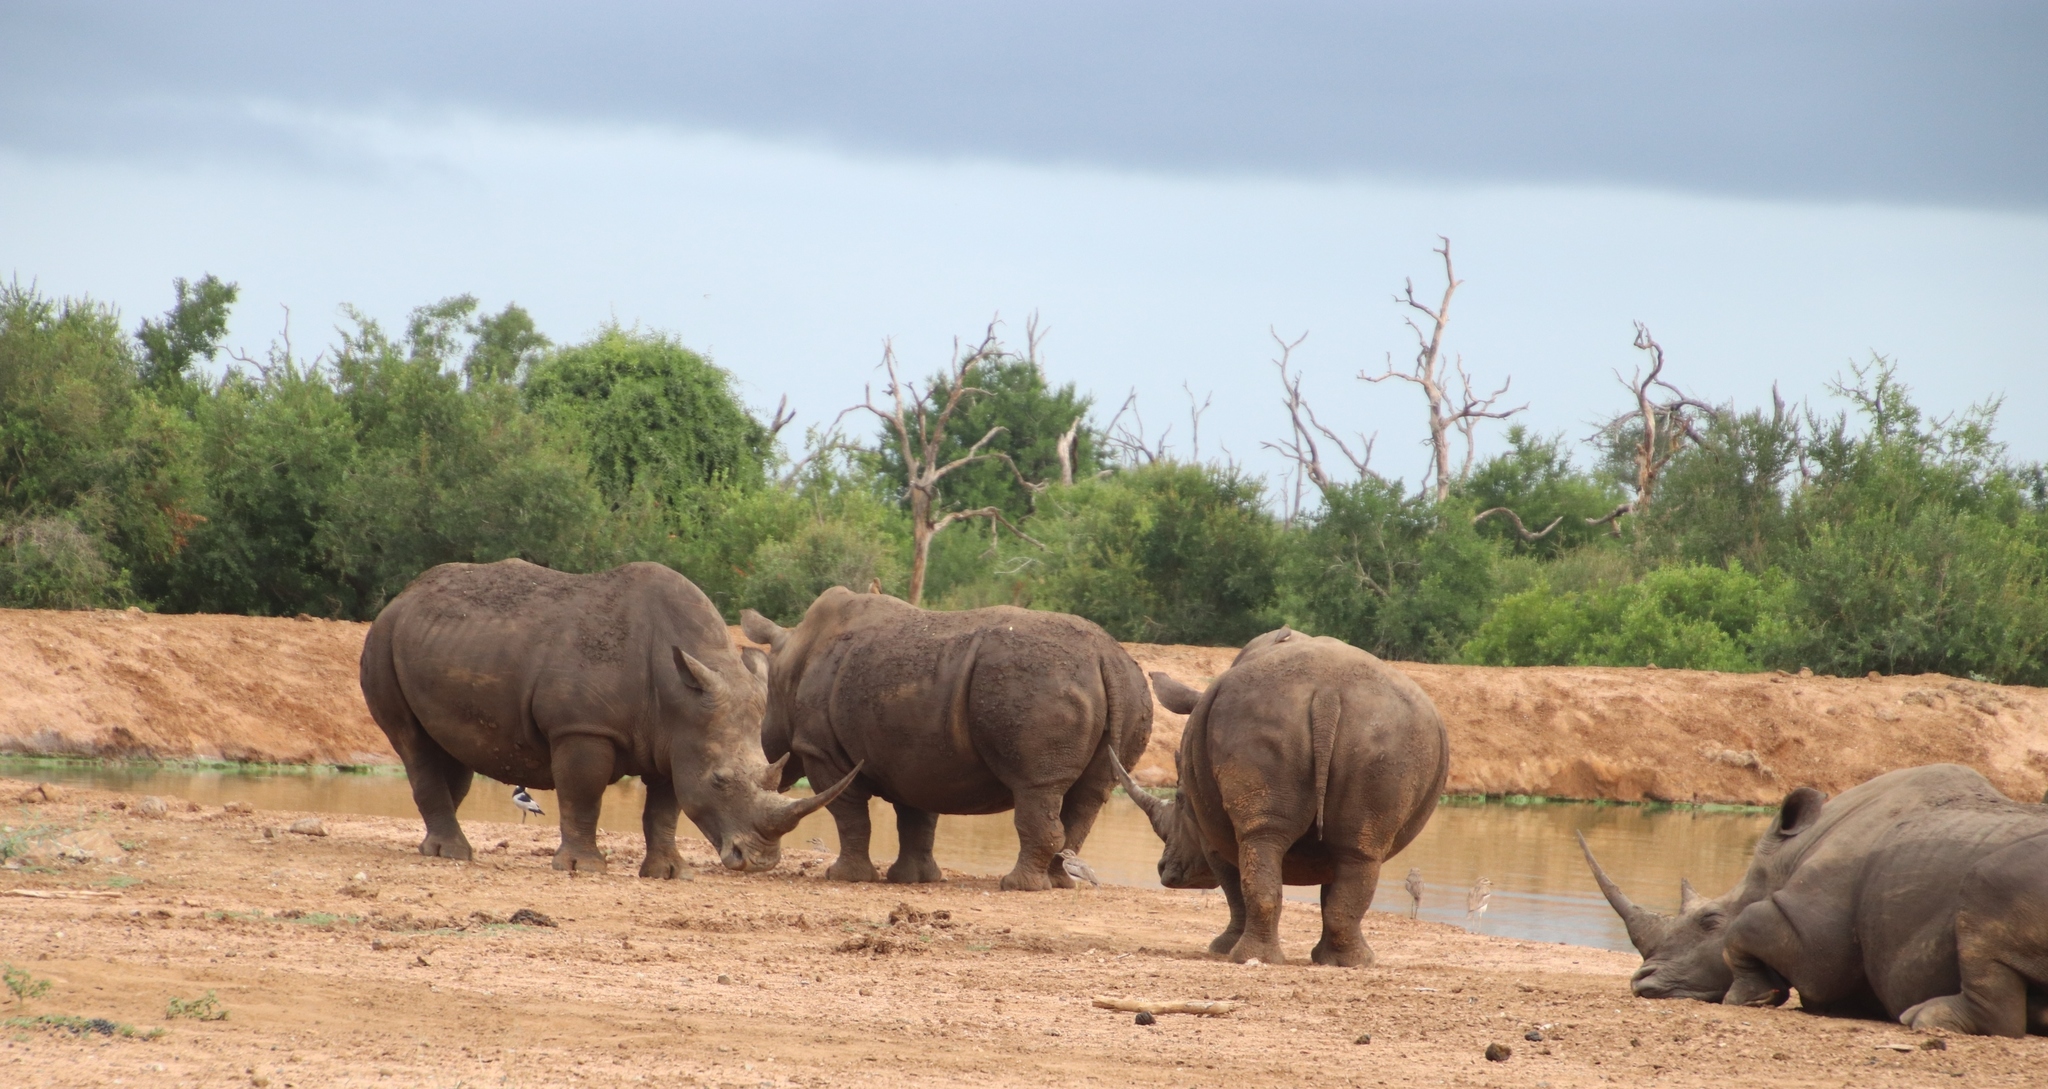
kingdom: Animalia
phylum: Chordata
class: Aves
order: Charadriiformes
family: Burhinidae
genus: Burhinus
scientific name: Burhinus vermiculatus
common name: Water thick-knee
